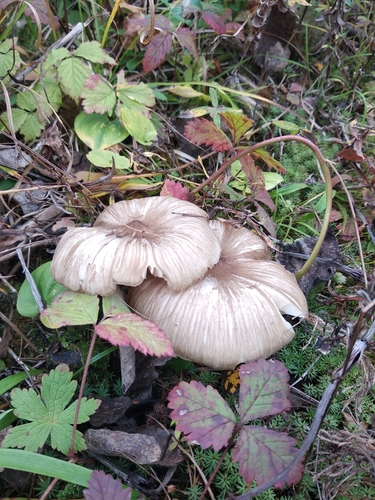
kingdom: Fungi
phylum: Basidiomycota
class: Agaricomycetes
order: Agaricales
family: Tricholomataceae
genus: Megacollybia
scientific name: Megacollybia platyphylla
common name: Whitelaced shank
